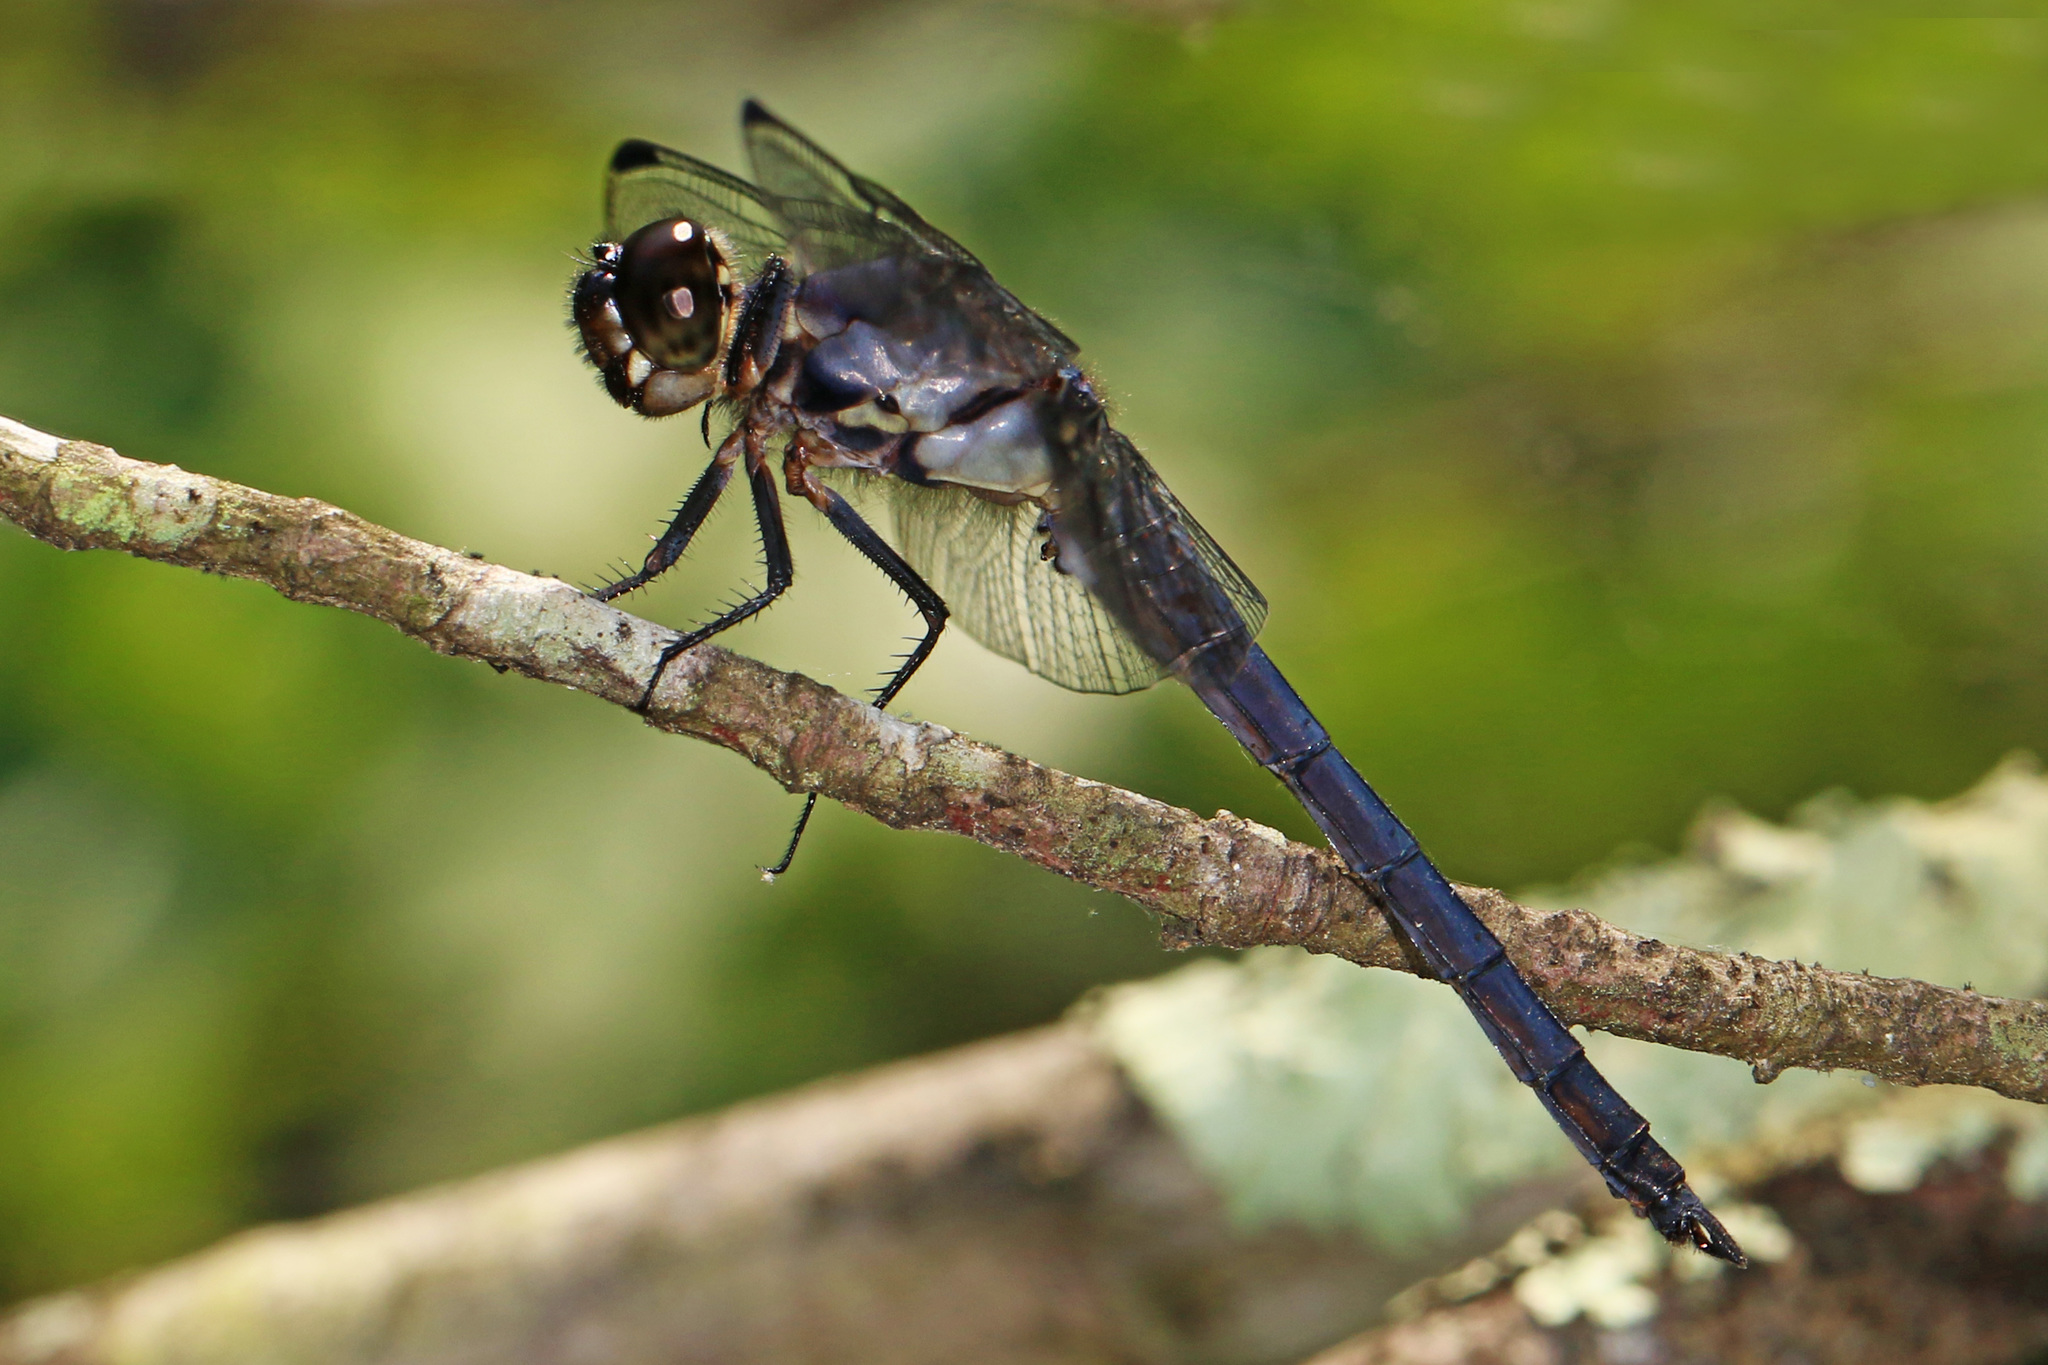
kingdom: Animalia
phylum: Arthropoda
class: Insecta
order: Odonata
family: Libellulidae
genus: Libellula
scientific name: Libellula incesta
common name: Slaty skimmer
